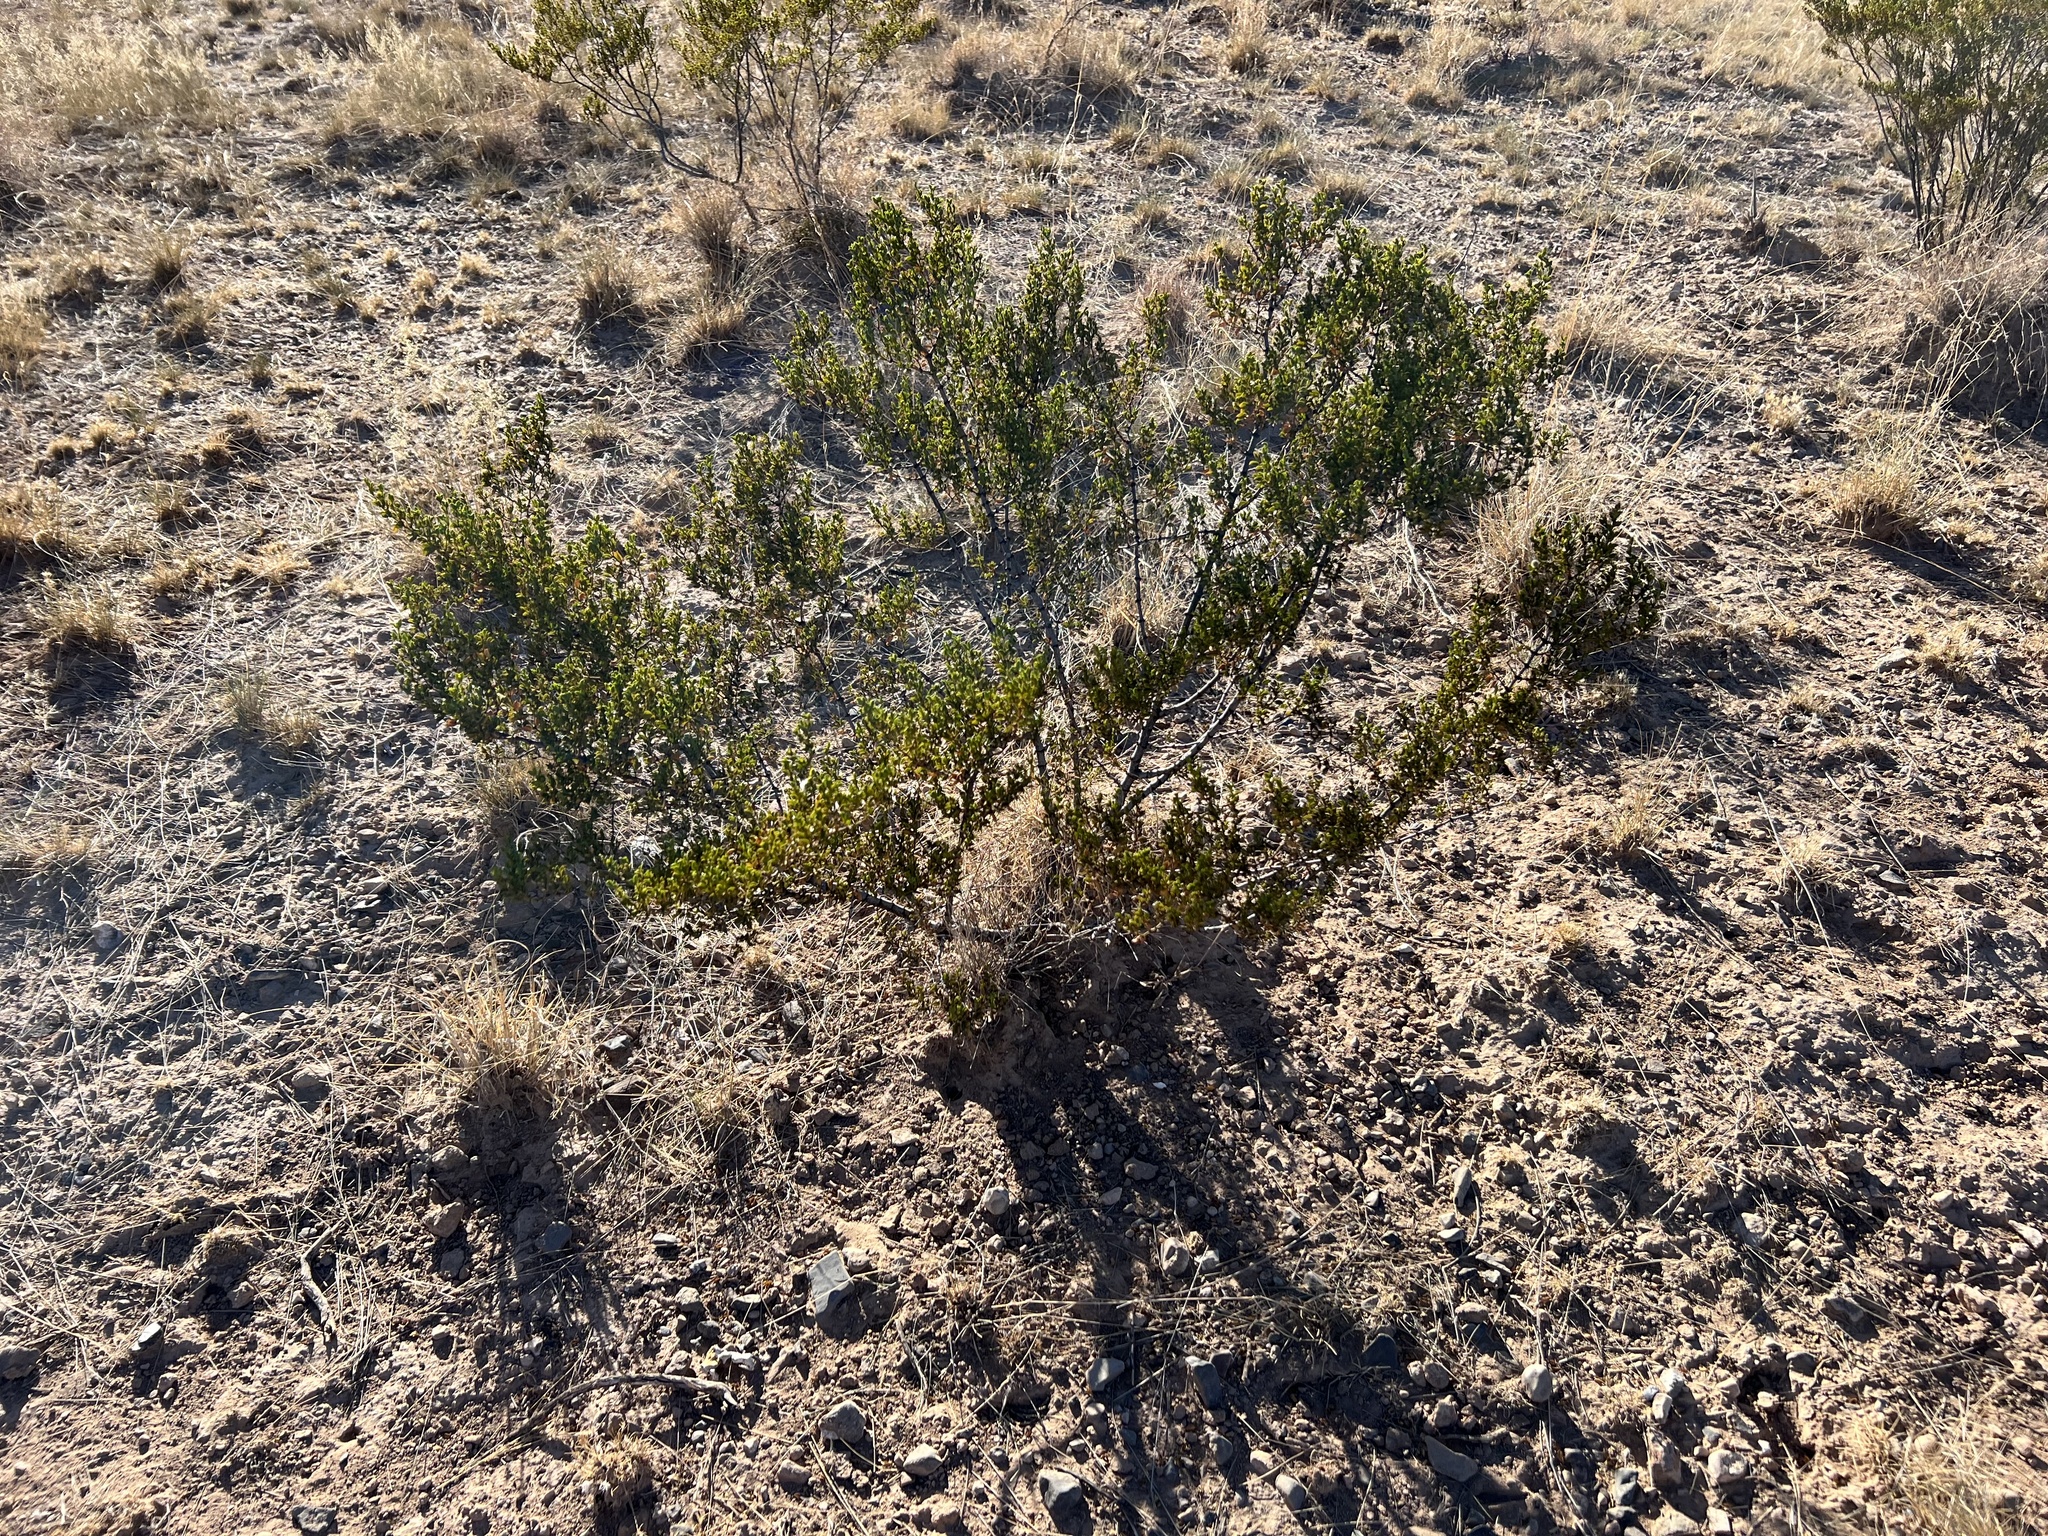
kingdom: Plantae
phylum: Tracheophyta
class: Magnoliopsida
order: Zygophyllales
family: Zygophyllaceae
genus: Larrea
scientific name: Larrea tridentata
